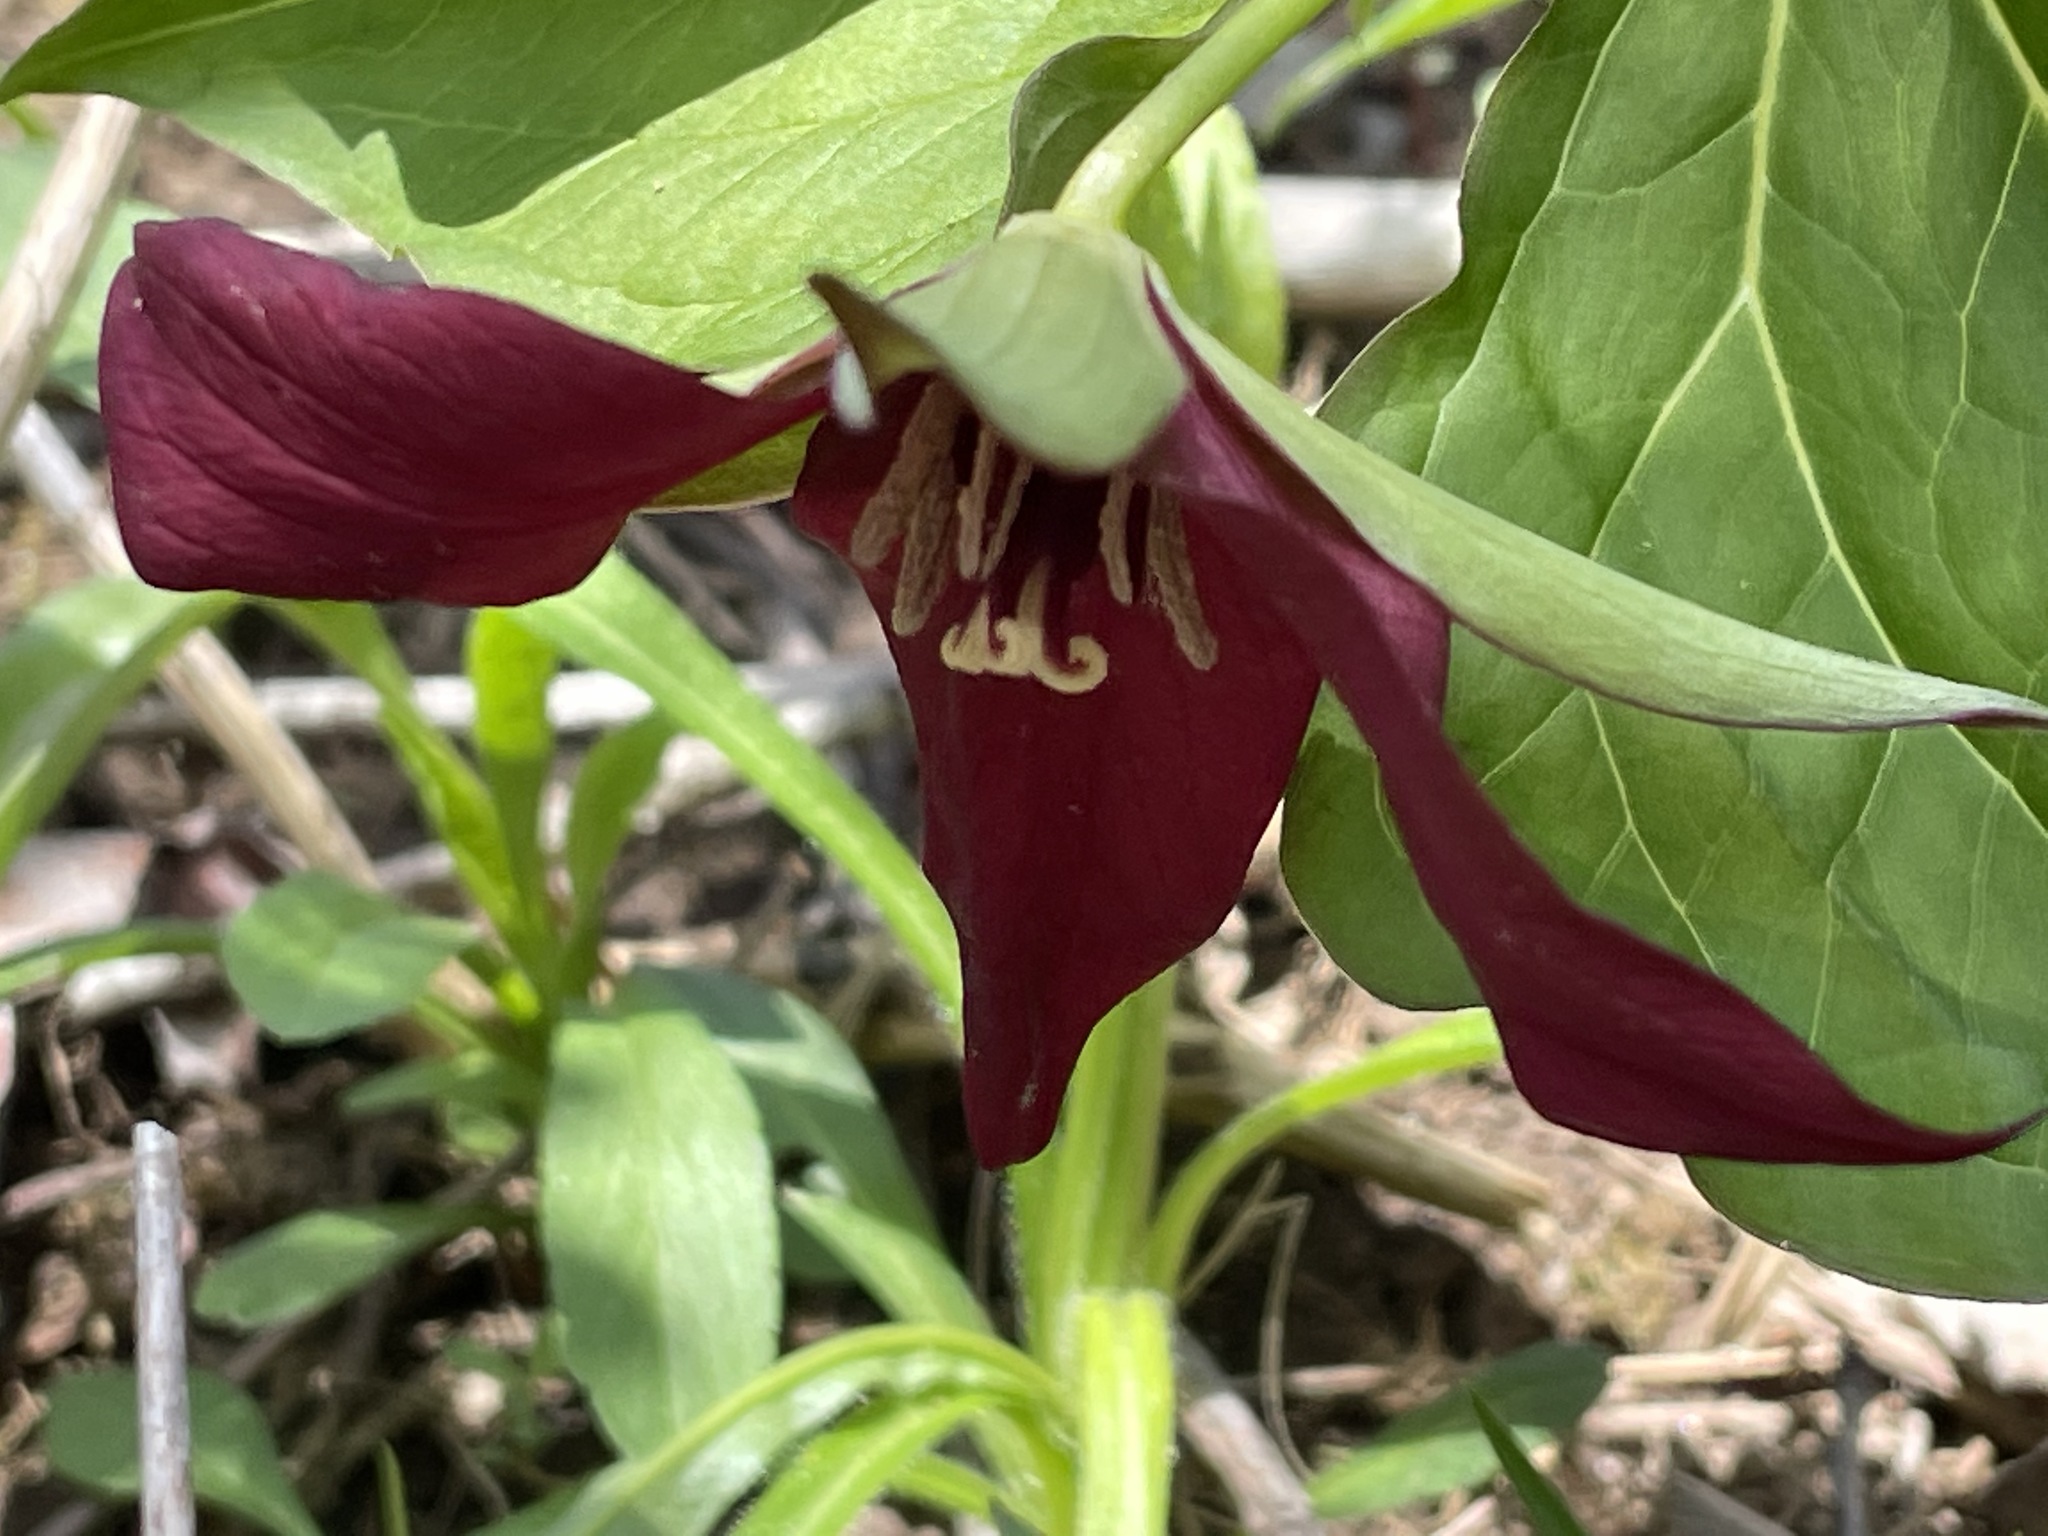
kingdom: Plantae
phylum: Tracheophyta
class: Liliopsida
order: Liliales
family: Melanthiaceae
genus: Trillium
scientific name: Trillium erectum
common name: Purple trillium
